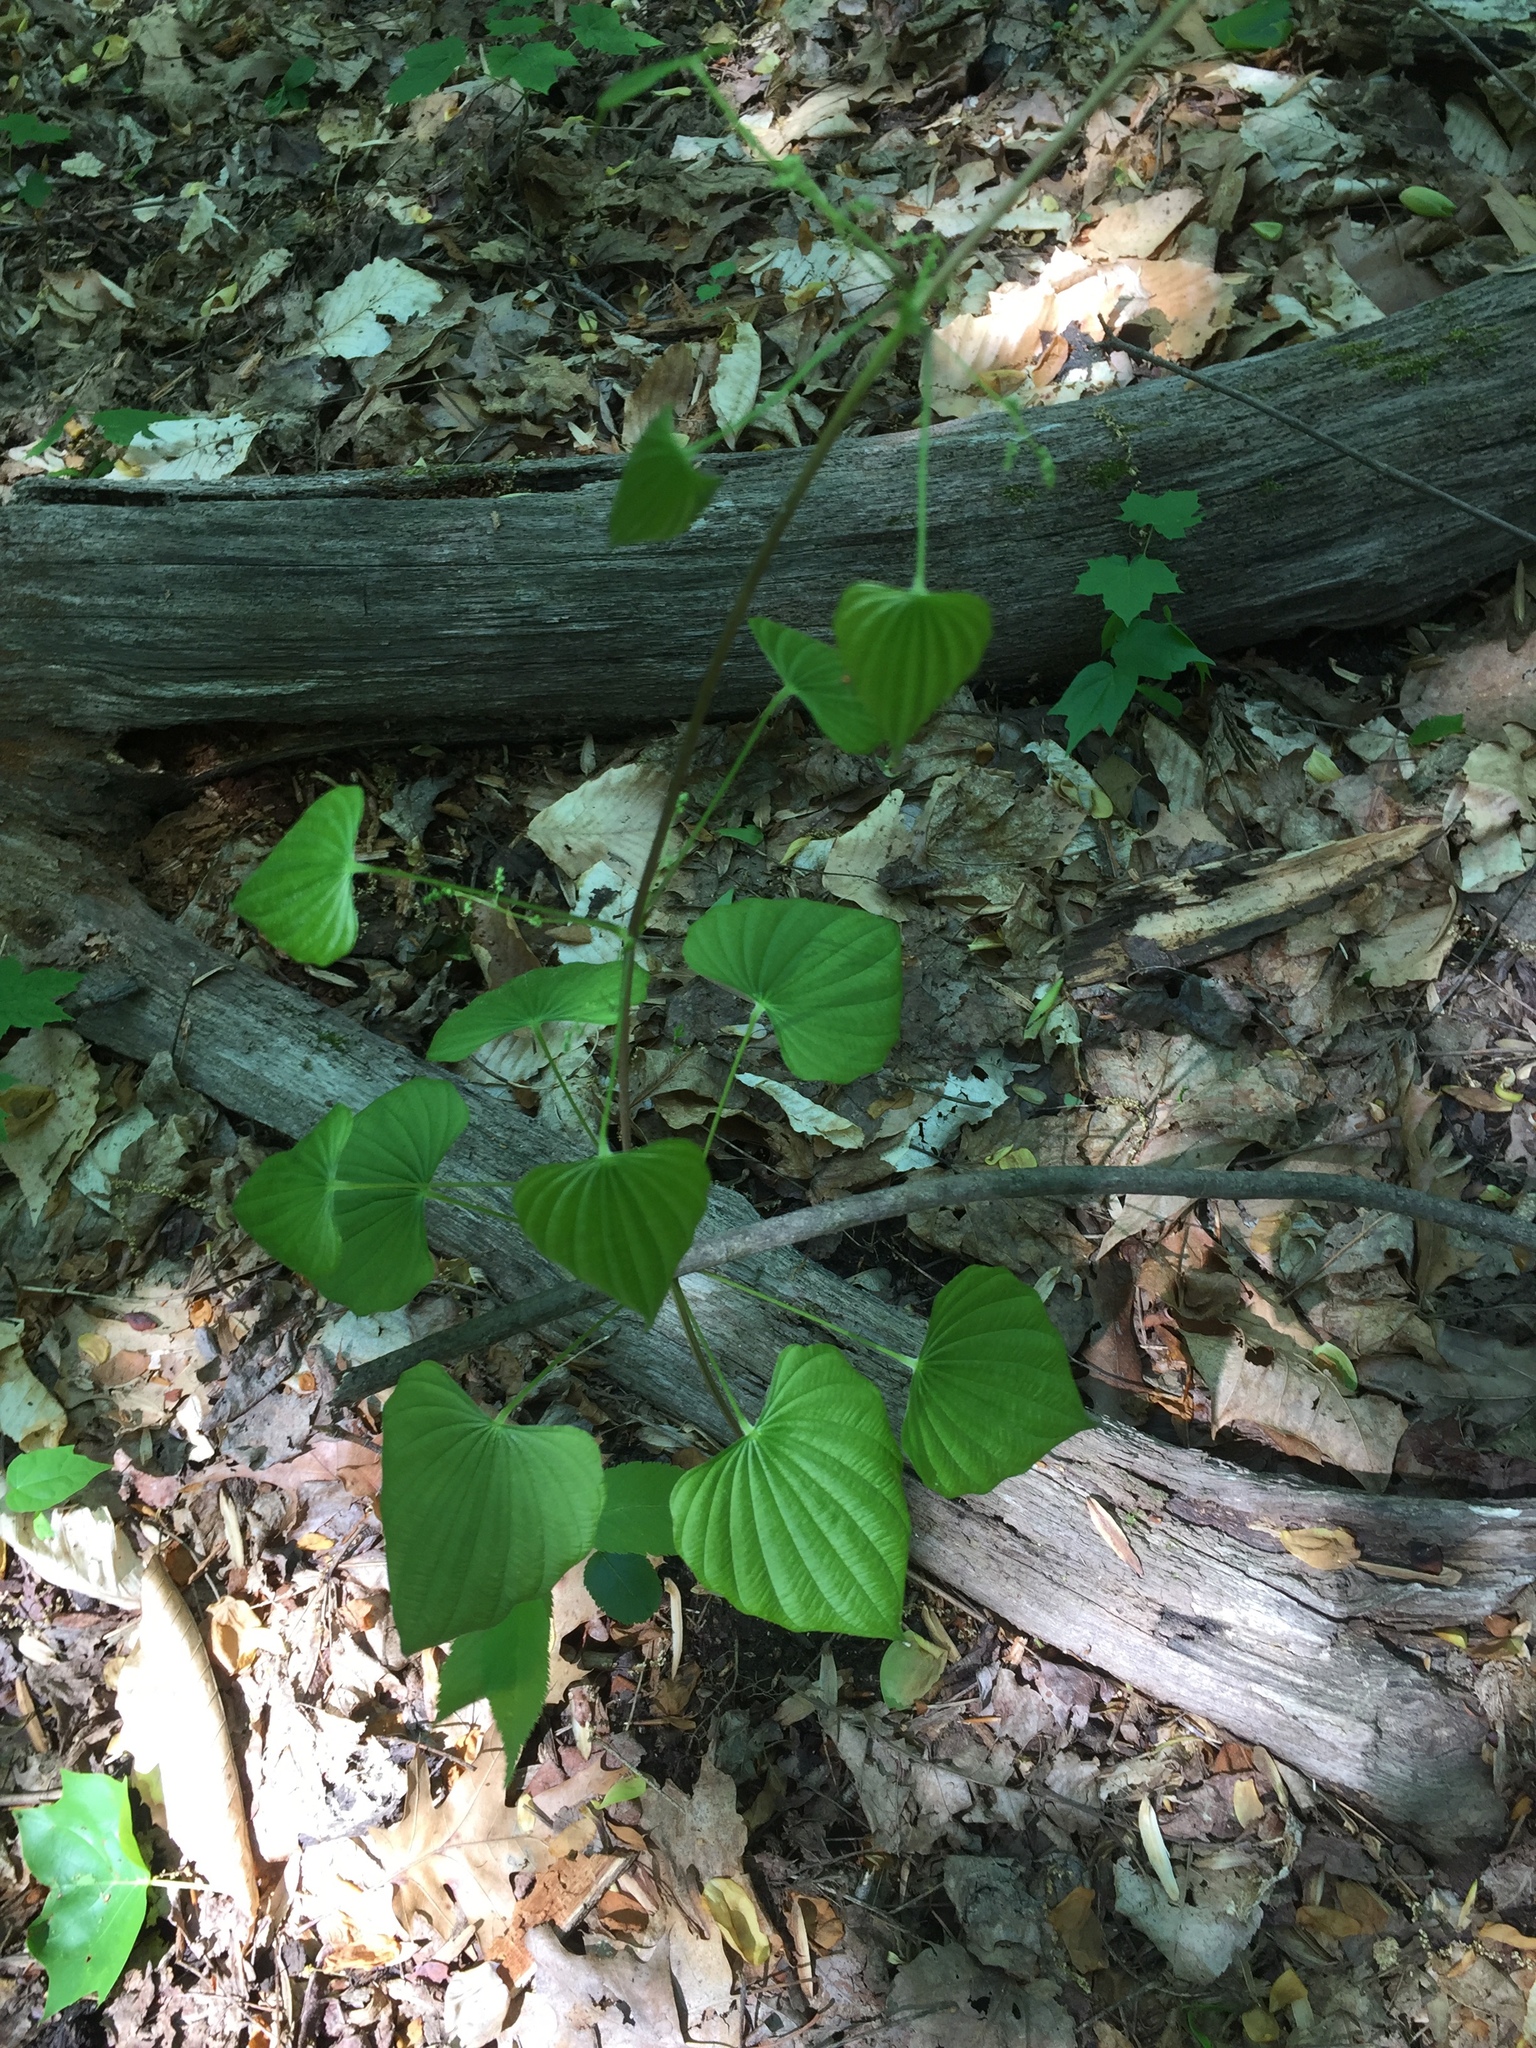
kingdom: Plantae
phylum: Tracheophyta
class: Liliopsida
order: Dioscoreales
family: Dioscoreaceae
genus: Dioscorea
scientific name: Dioscorea villosa
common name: Wild yam
